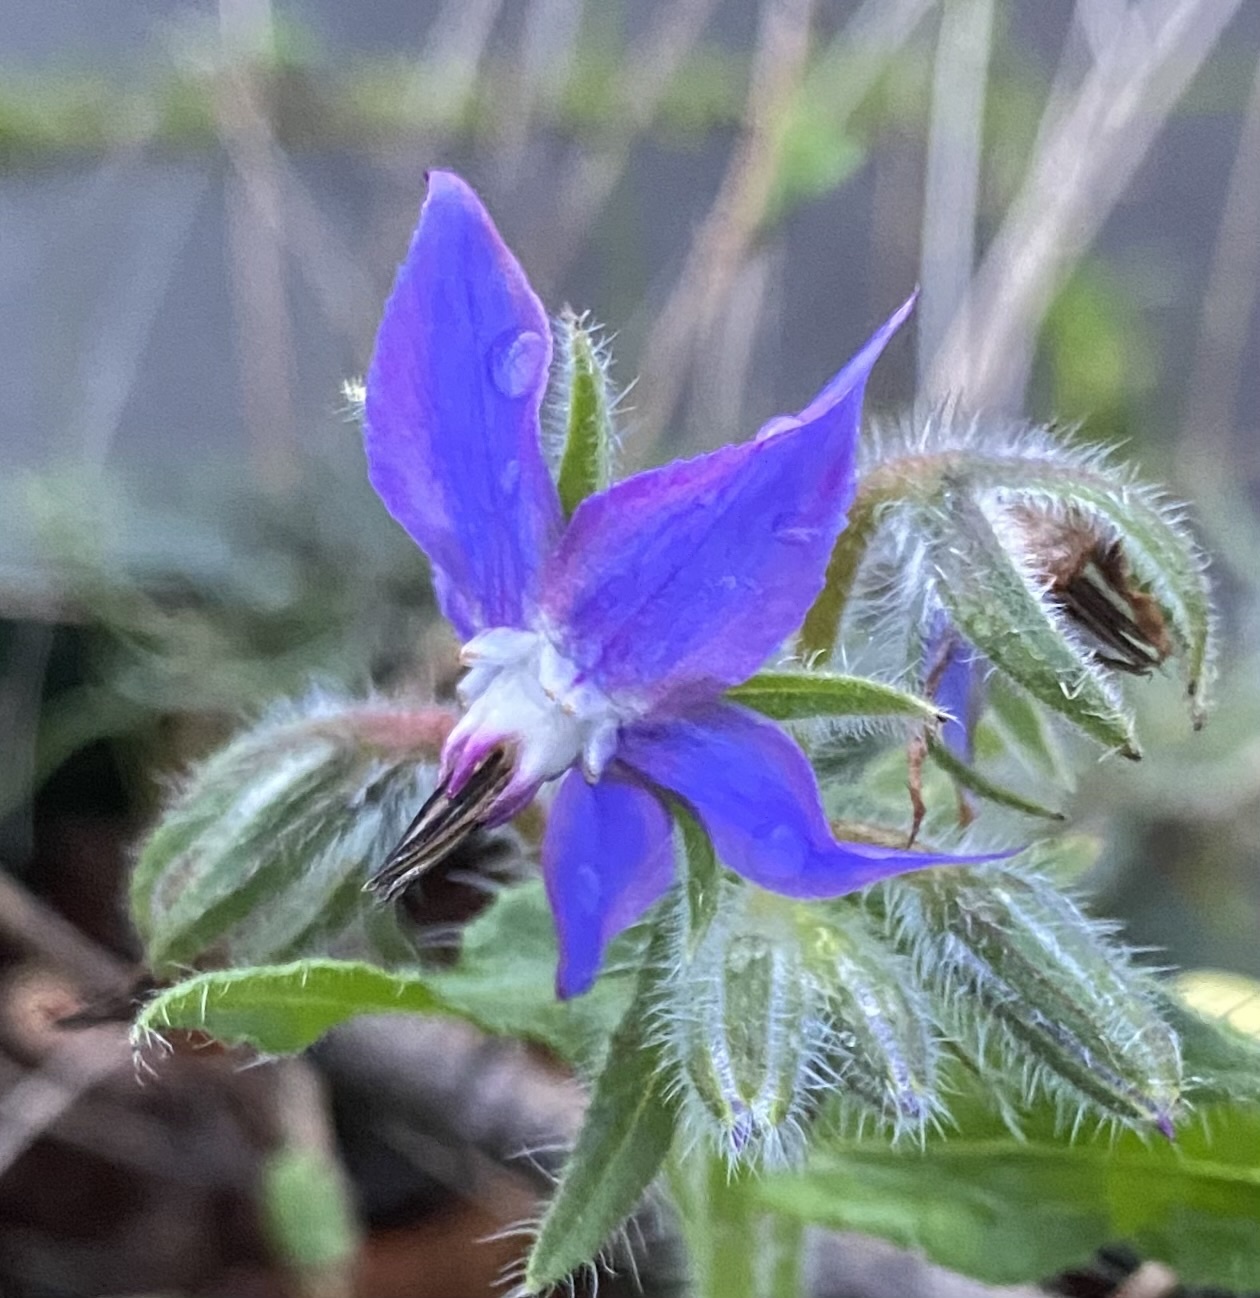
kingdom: Plantae
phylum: Tracheophyta
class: Magnoliopsida
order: Boraginales
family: Boraginaceae
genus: Borago
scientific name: Borago officinalis
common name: Borage
